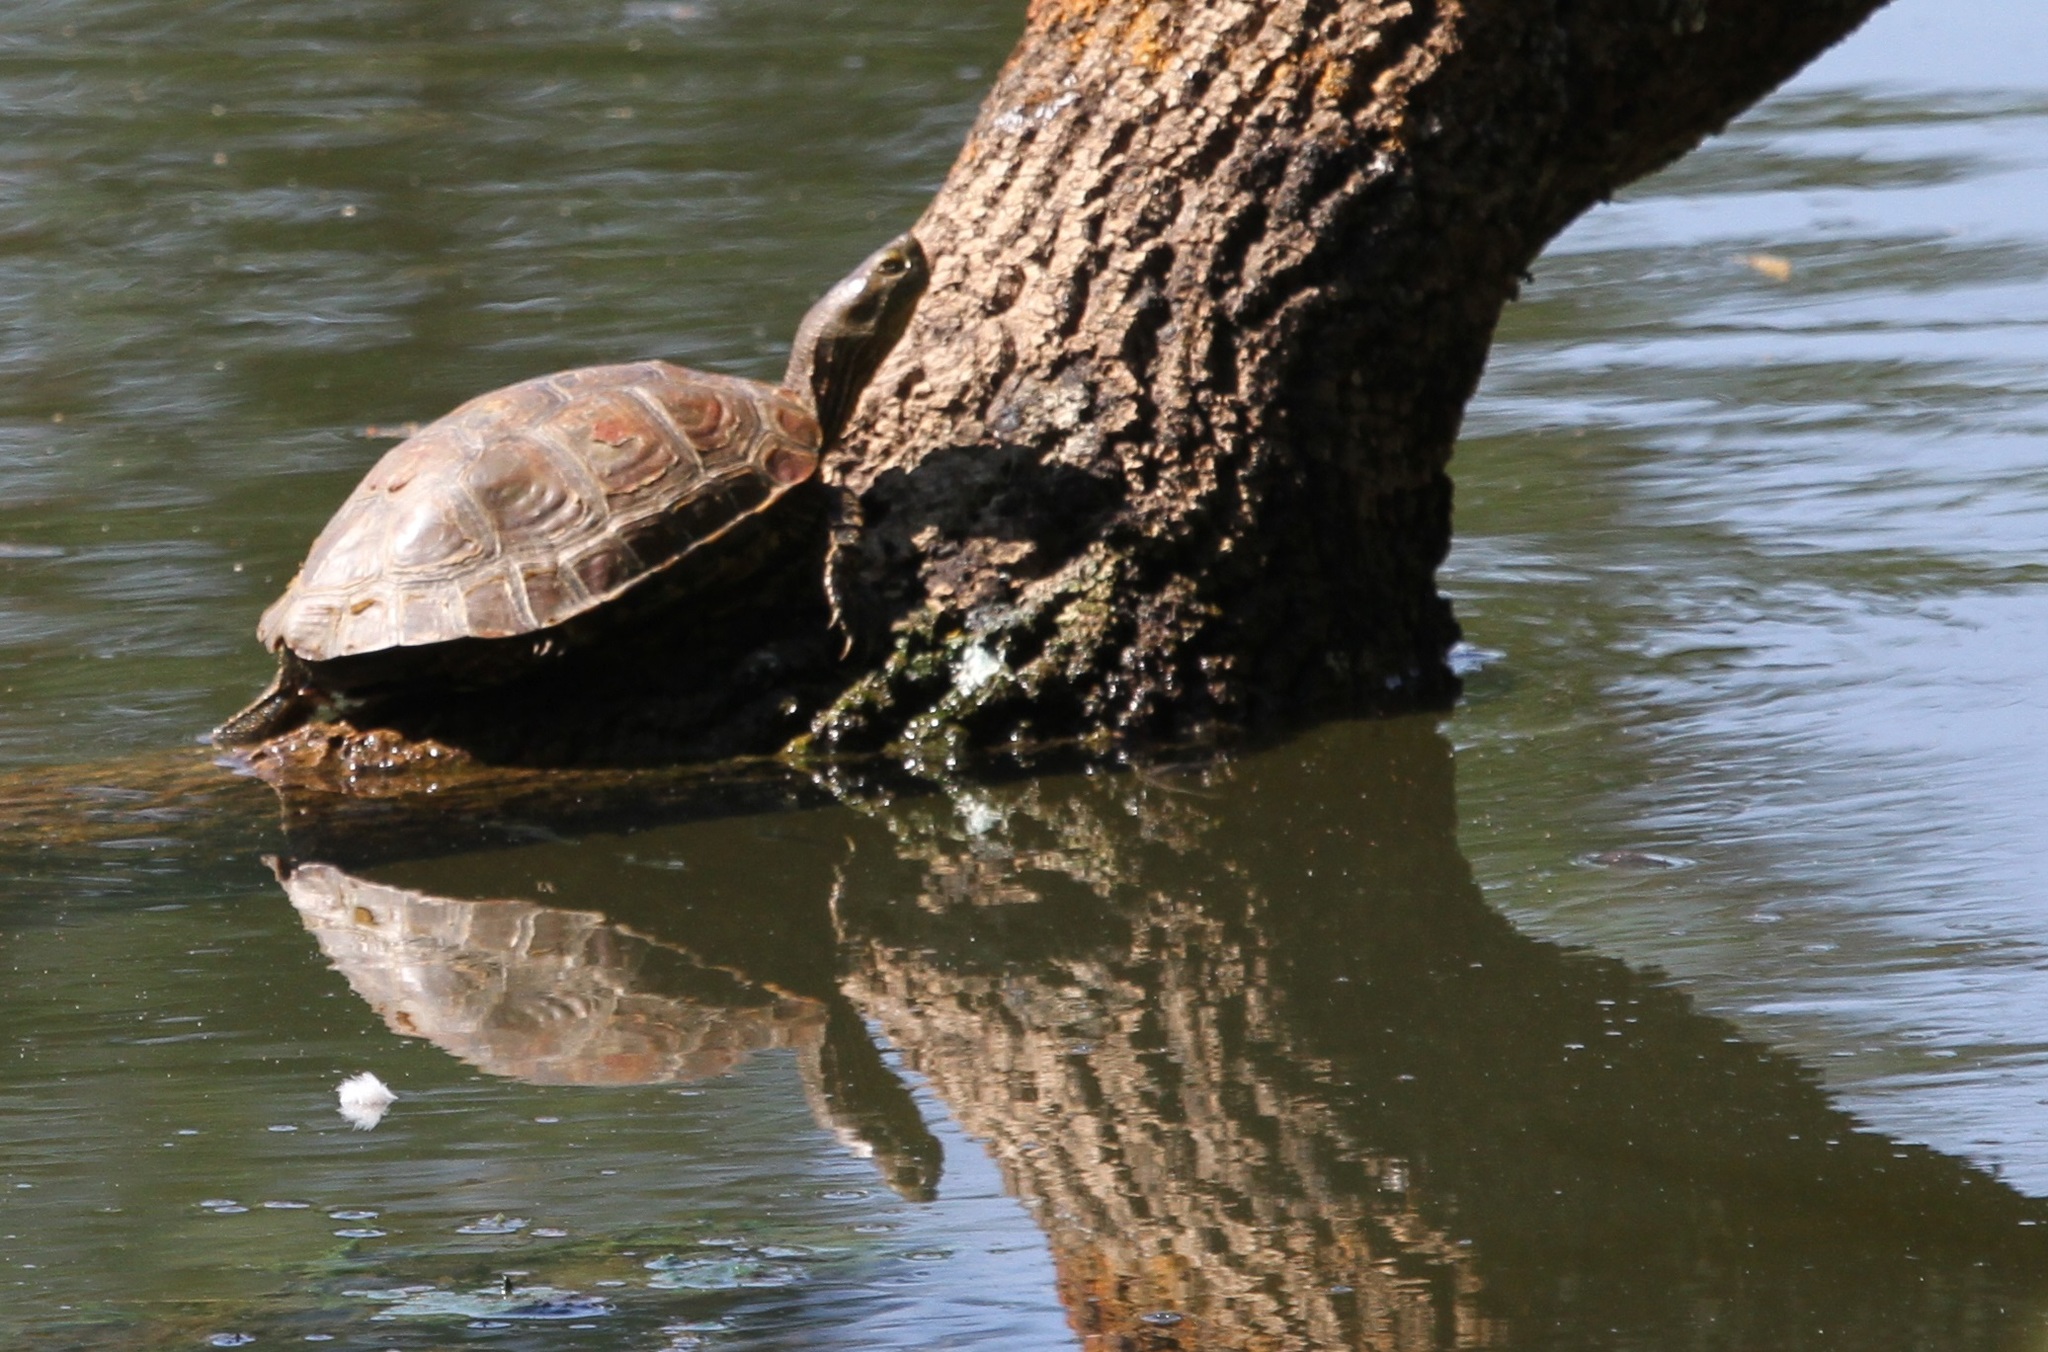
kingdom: Animalia
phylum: Chordata
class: Testudines
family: Geoemydidae
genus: Mauremys
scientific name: Mauremys leprosa
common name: Mediterranean pond turtle
